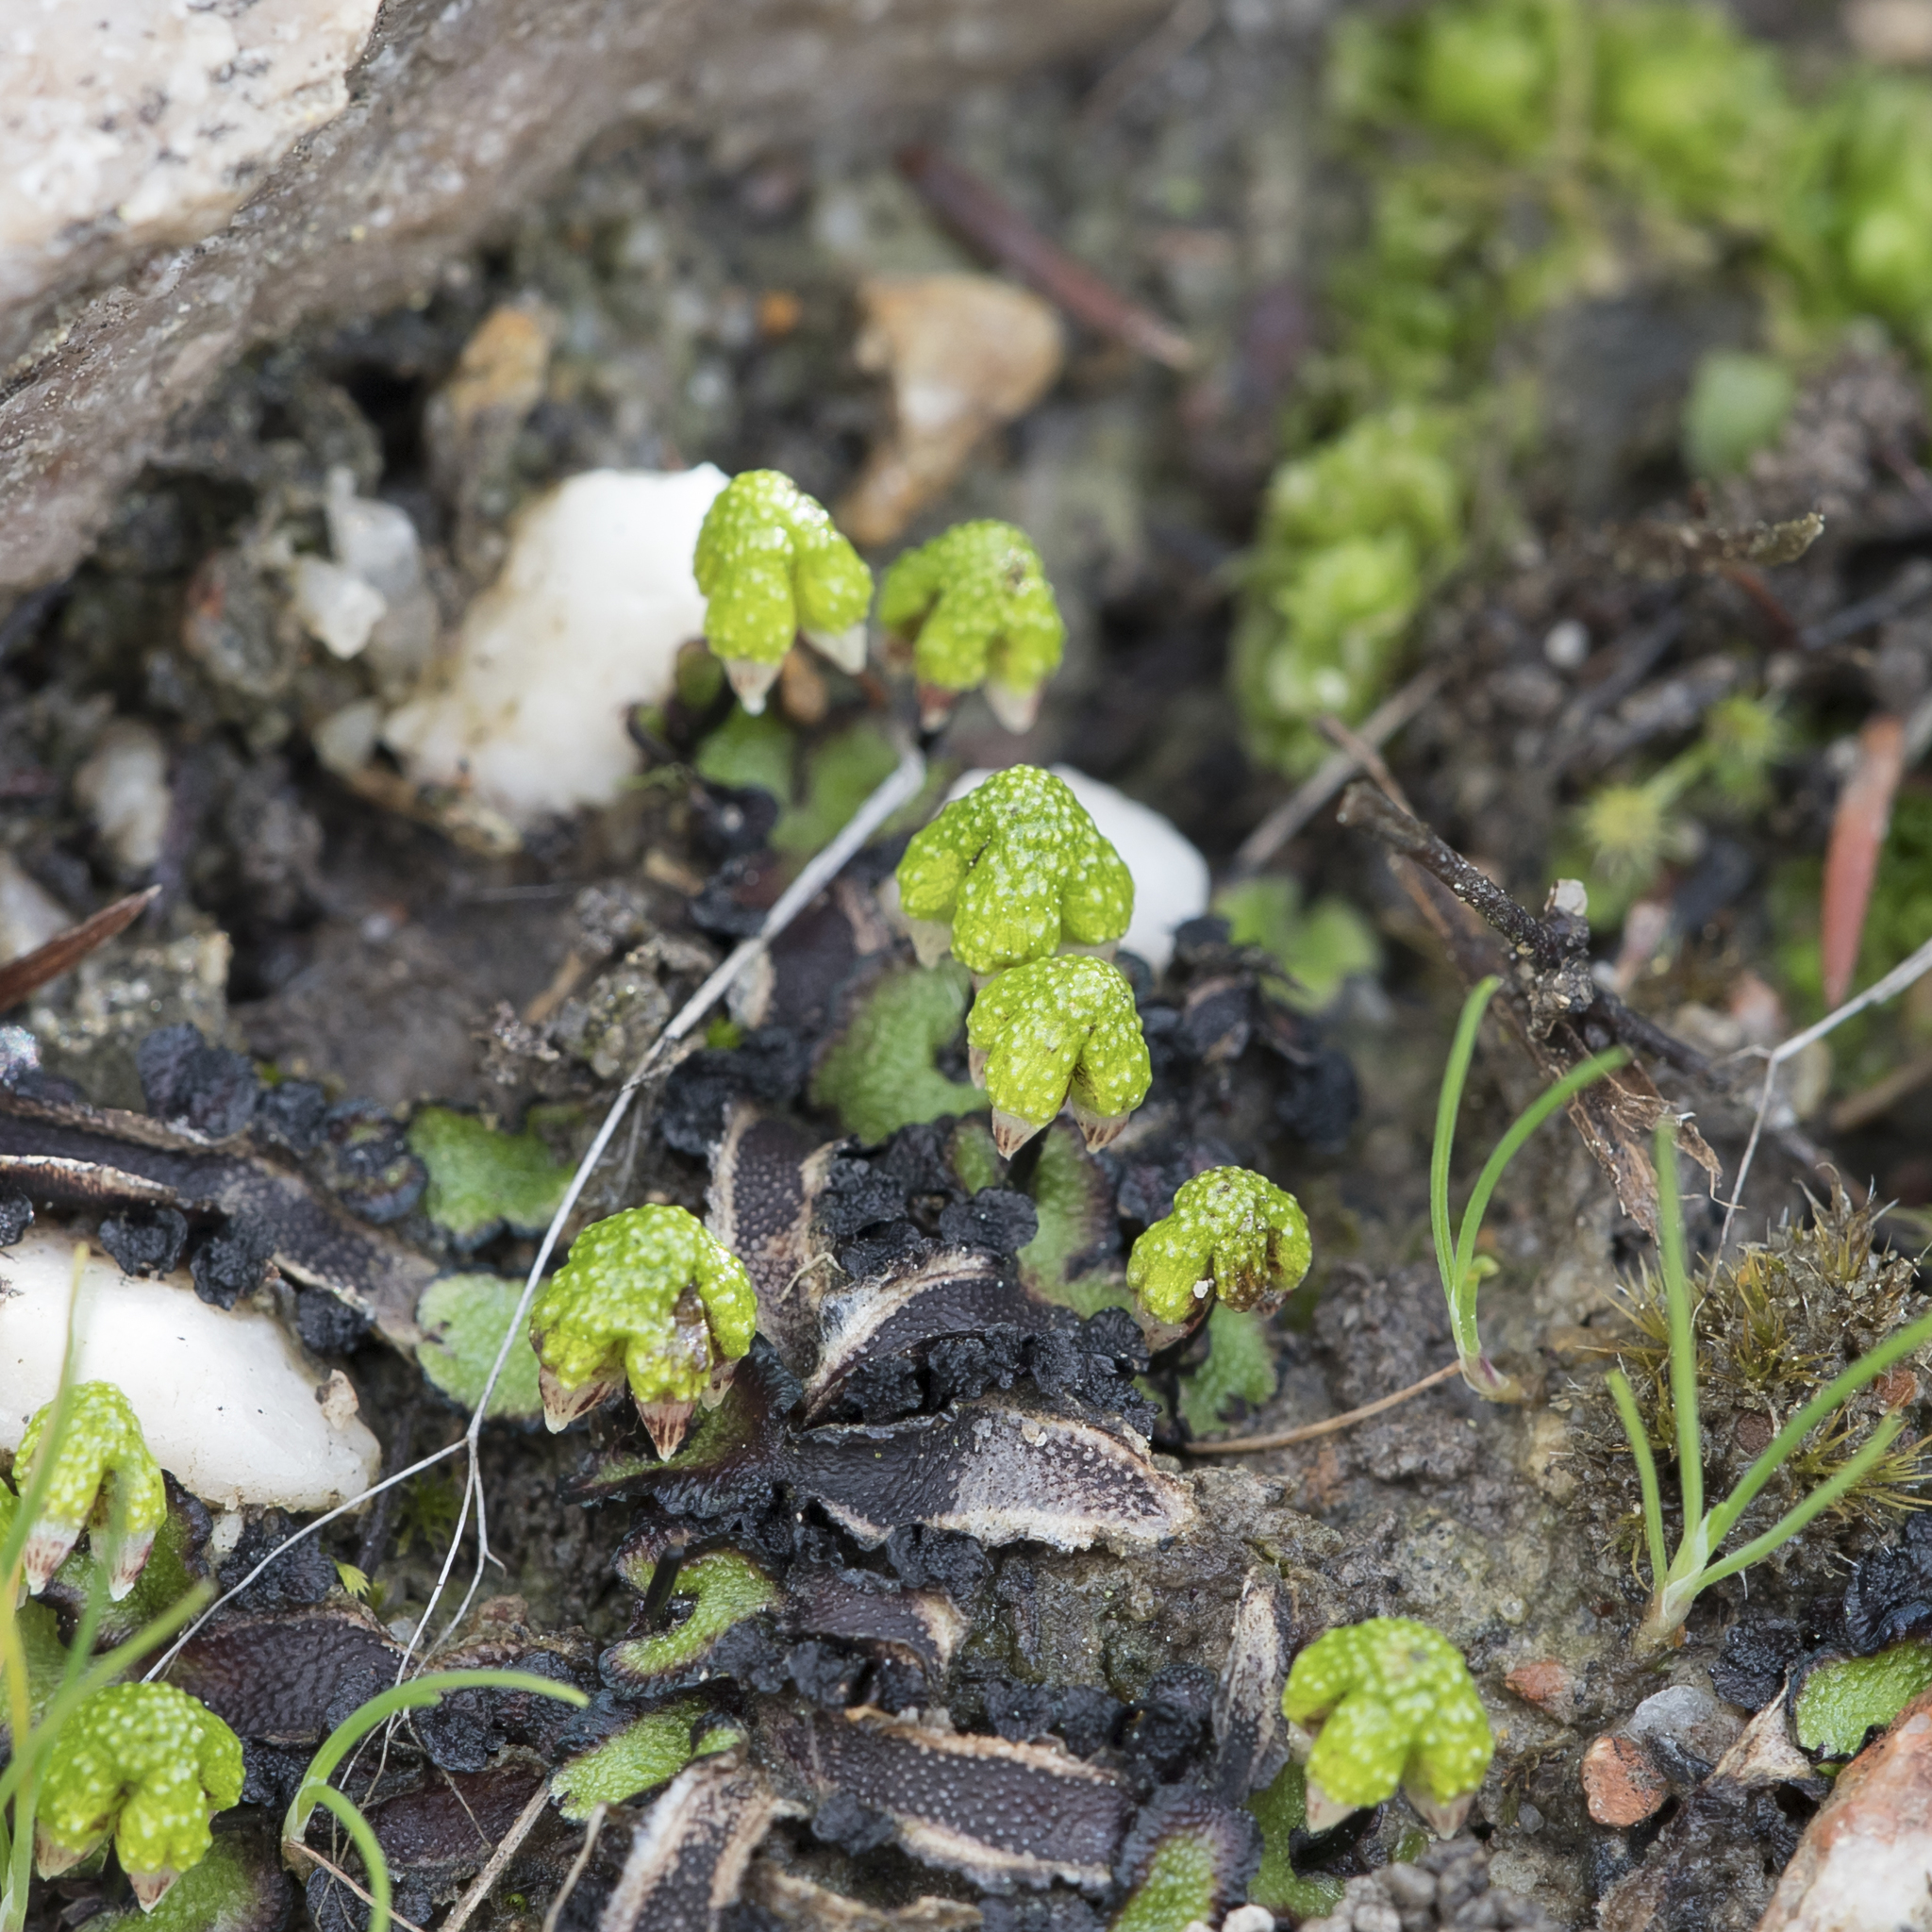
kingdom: Plantae
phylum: Marchantiophyta
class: Marchantiopsida
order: Marchantiales
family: Aytoniaceae
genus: Asterella
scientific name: Asterella drummondii
